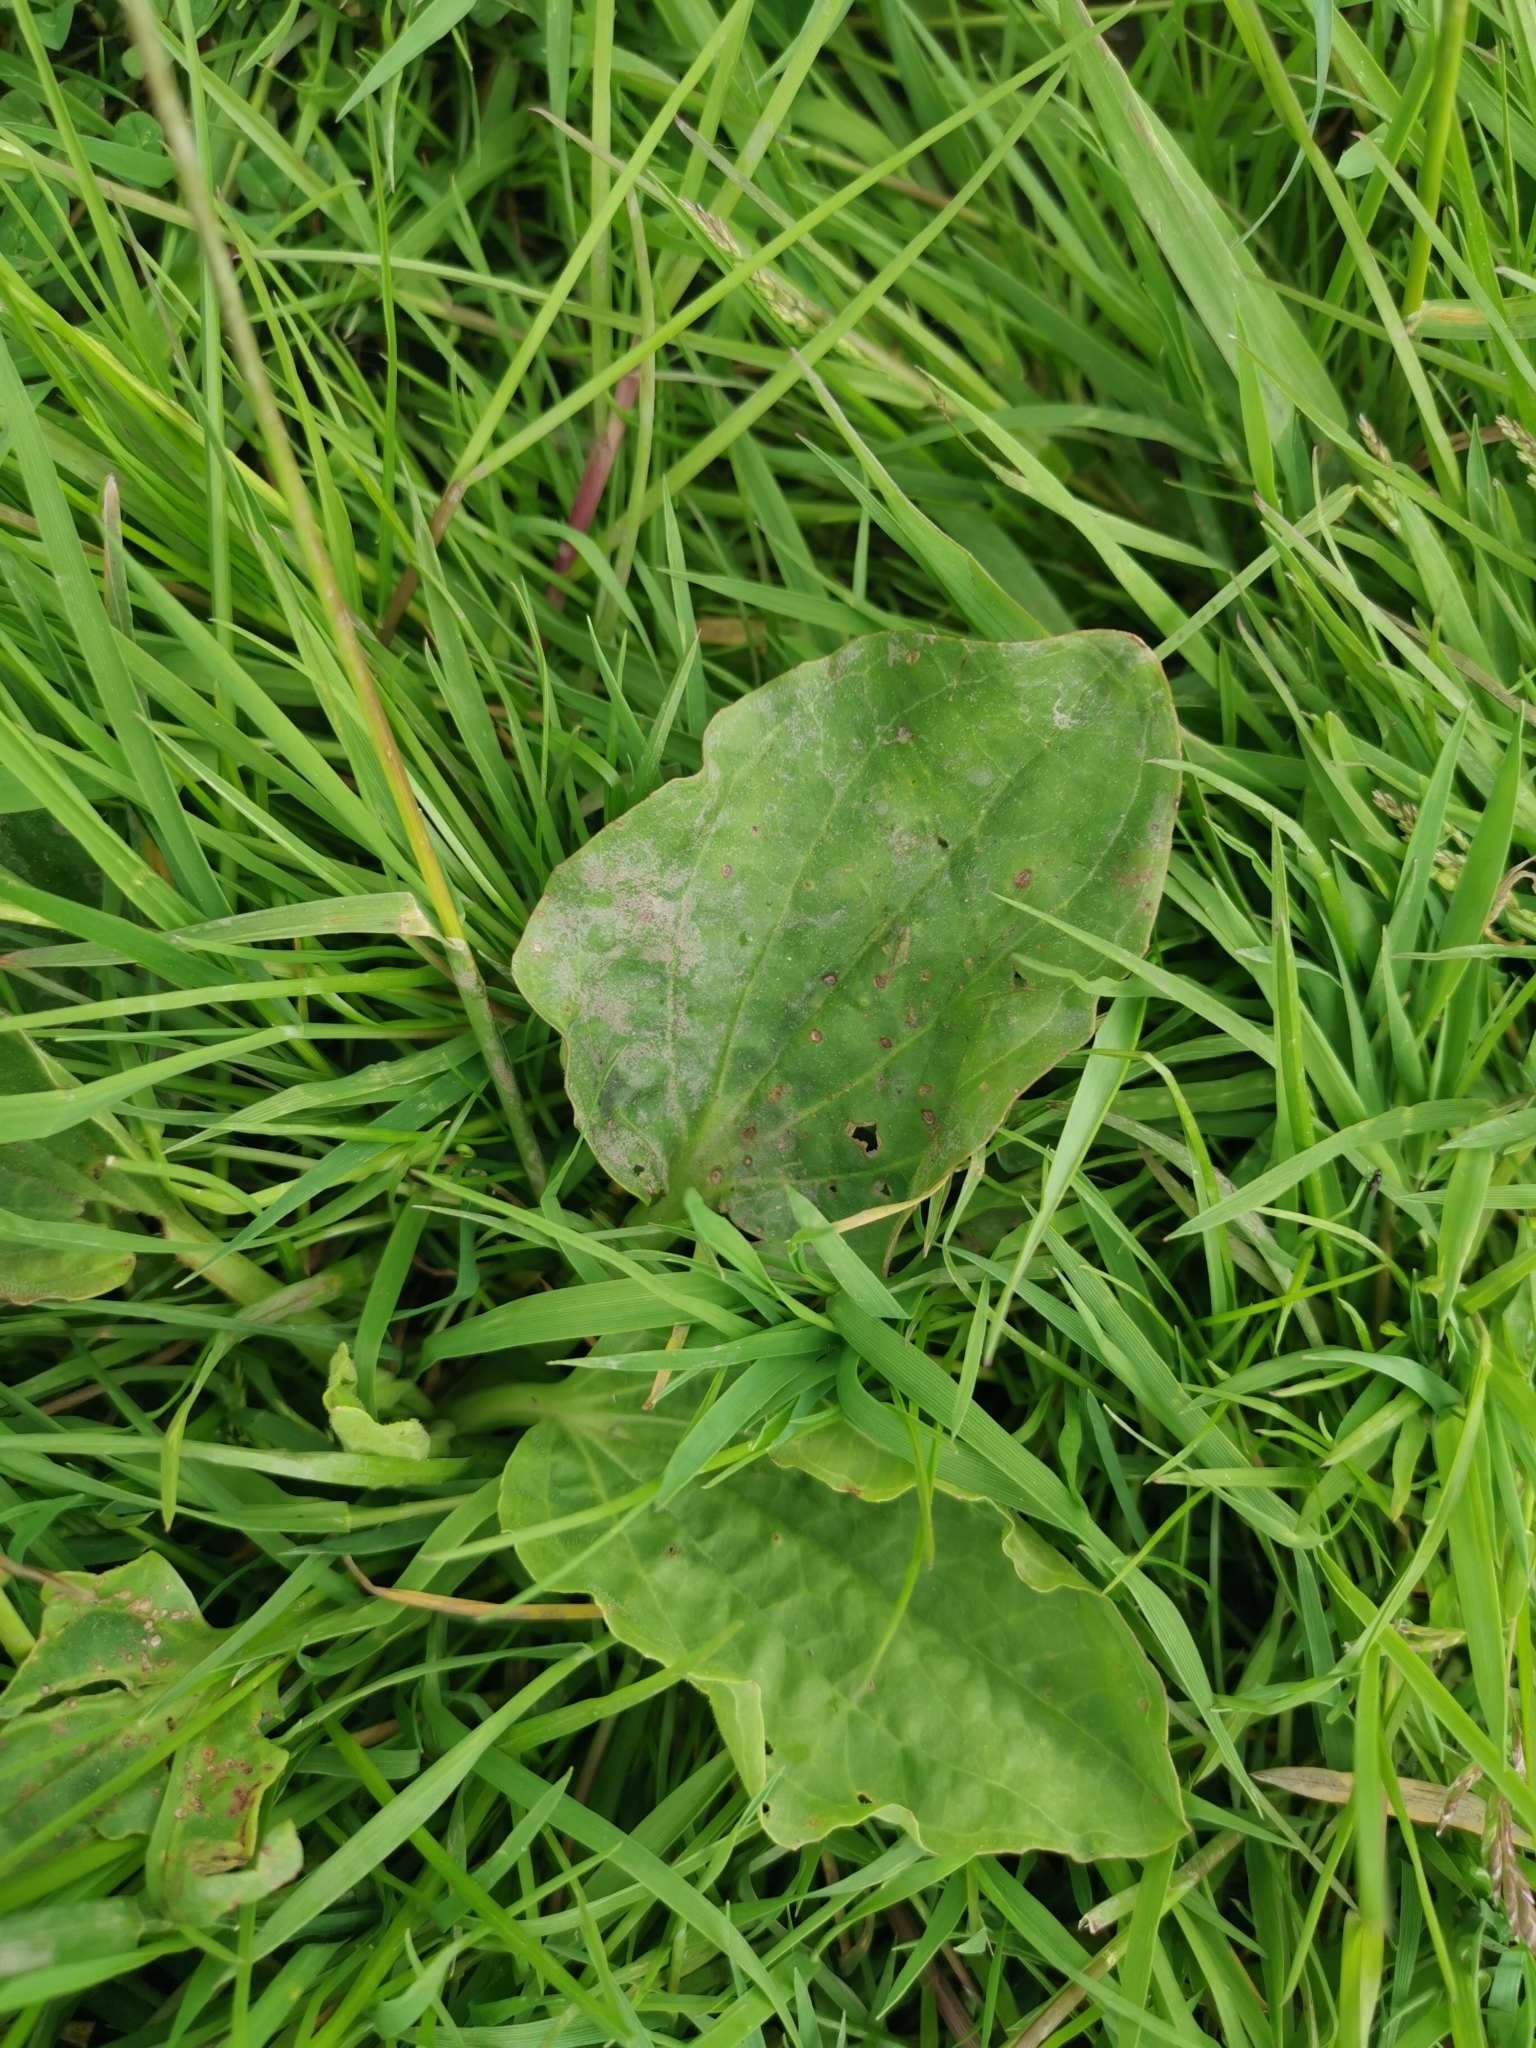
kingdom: Plantae
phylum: Tracheophyta
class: Magnoliopsida
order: Lamiales
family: Plantaginaceae
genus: Plantago
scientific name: Plantago major
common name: Common plantain
